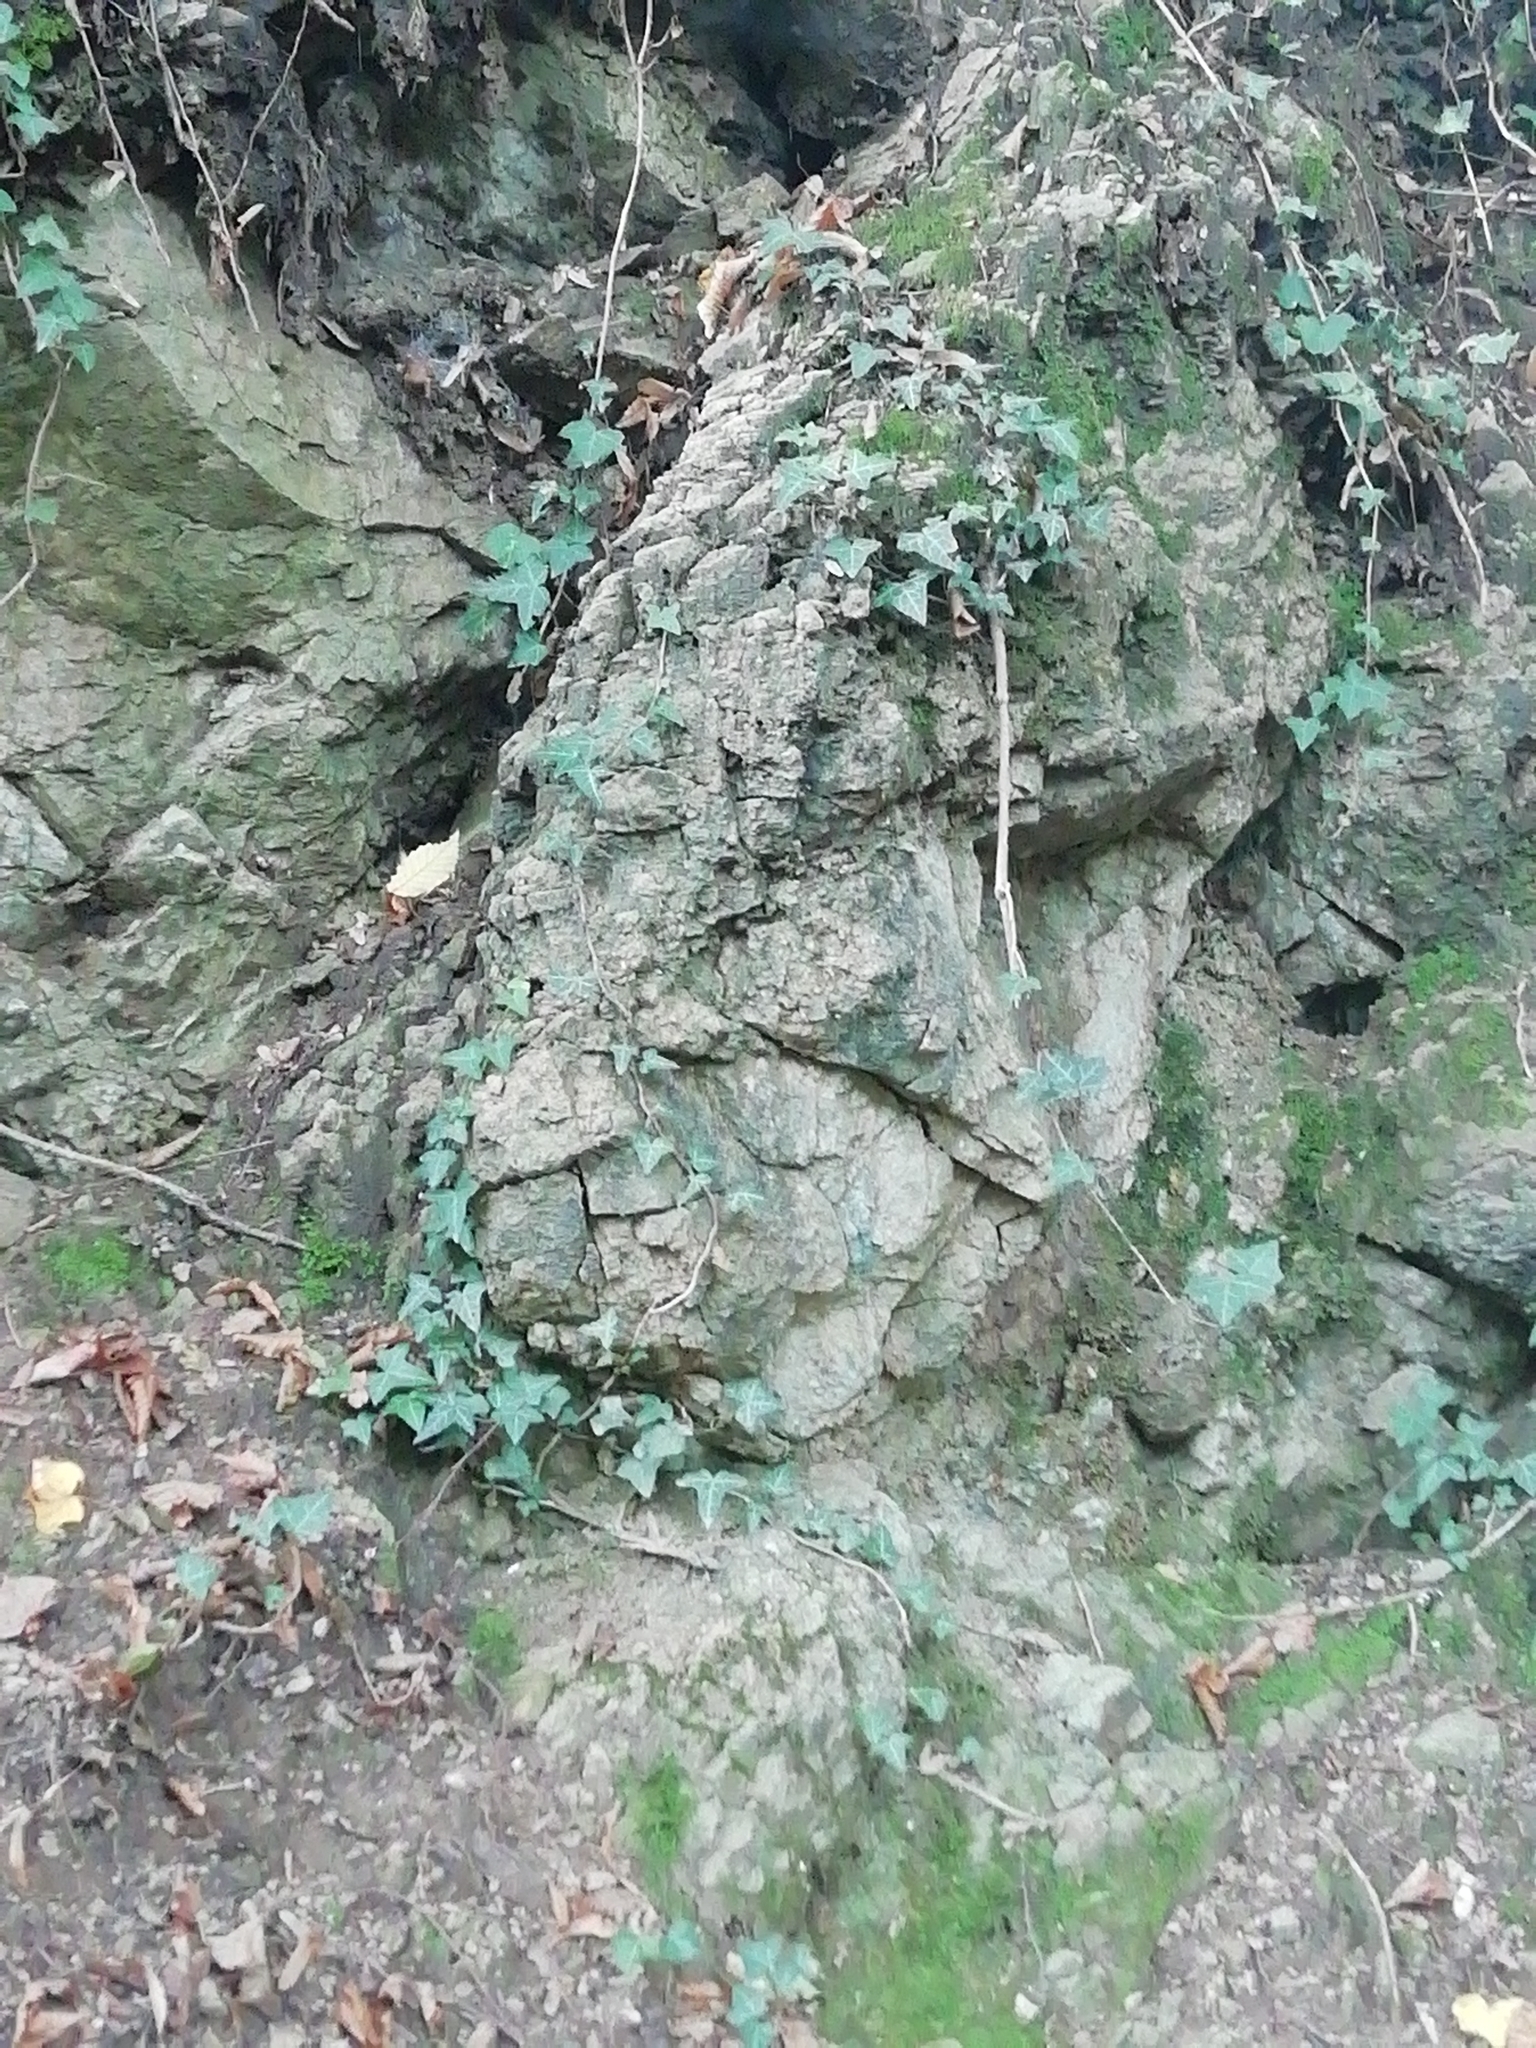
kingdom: Plantae
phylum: Tracheophyta
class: Magnoliopsida
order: Apiales
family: Araliaceae
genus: Hedera
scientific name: Hedera helix
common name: Ivy
